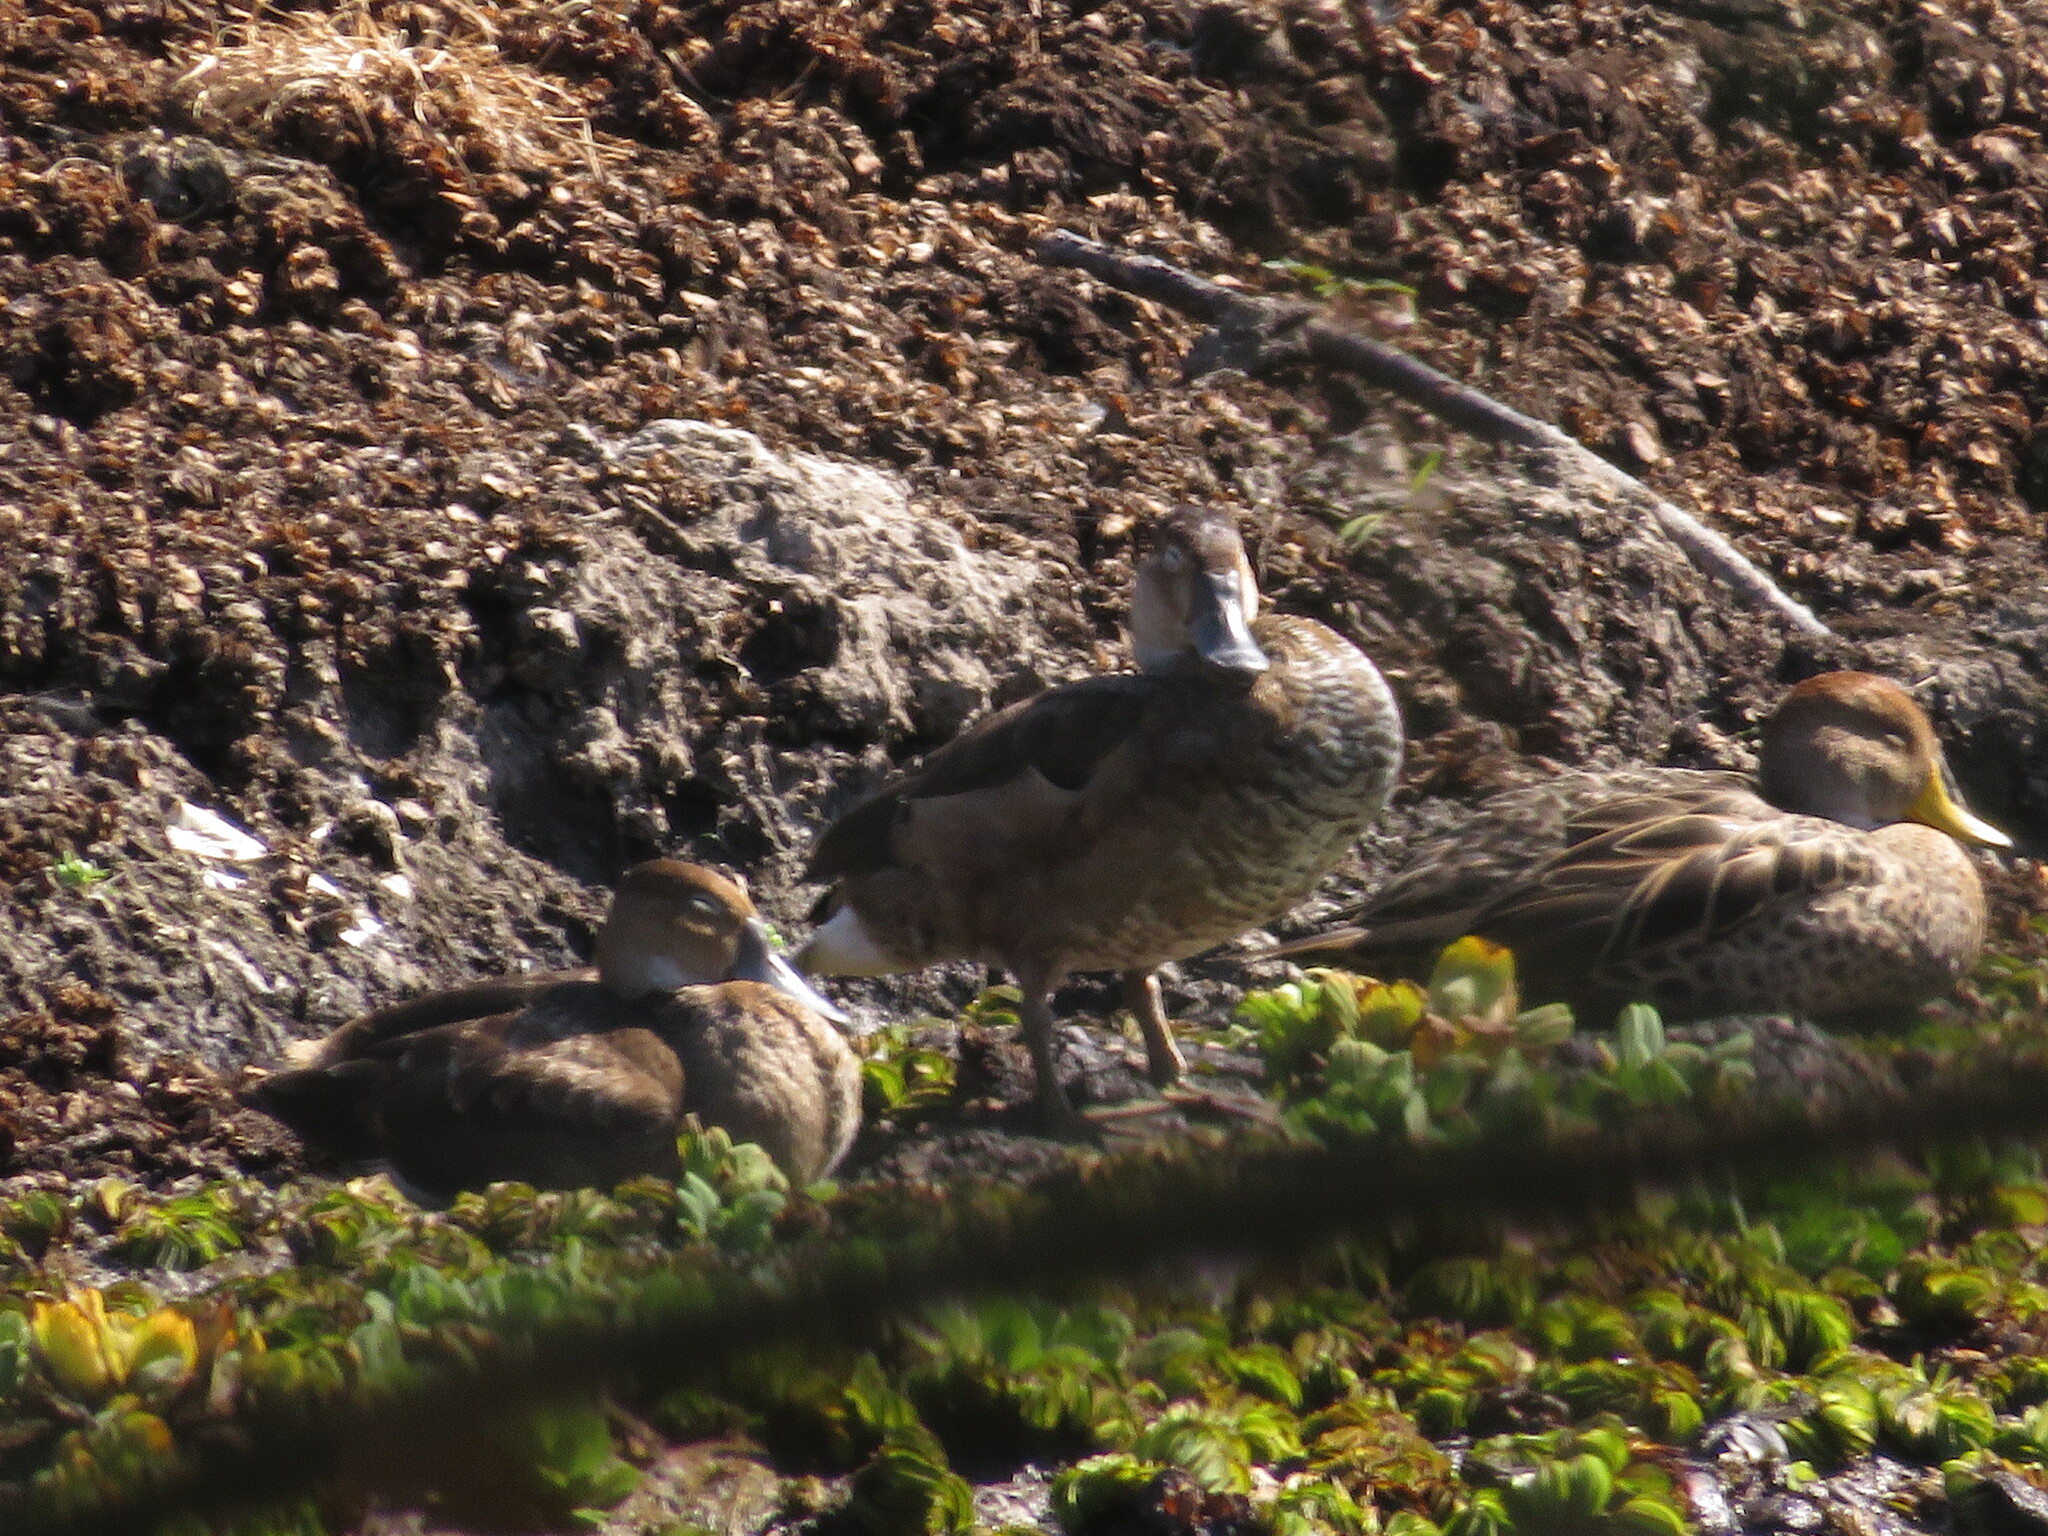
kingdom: Animalia
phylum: Chordata
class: Aves
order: Anseriformes
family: Anatidae
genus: Netta
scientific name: Netta peposaca
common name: Rosy-billed pochard
